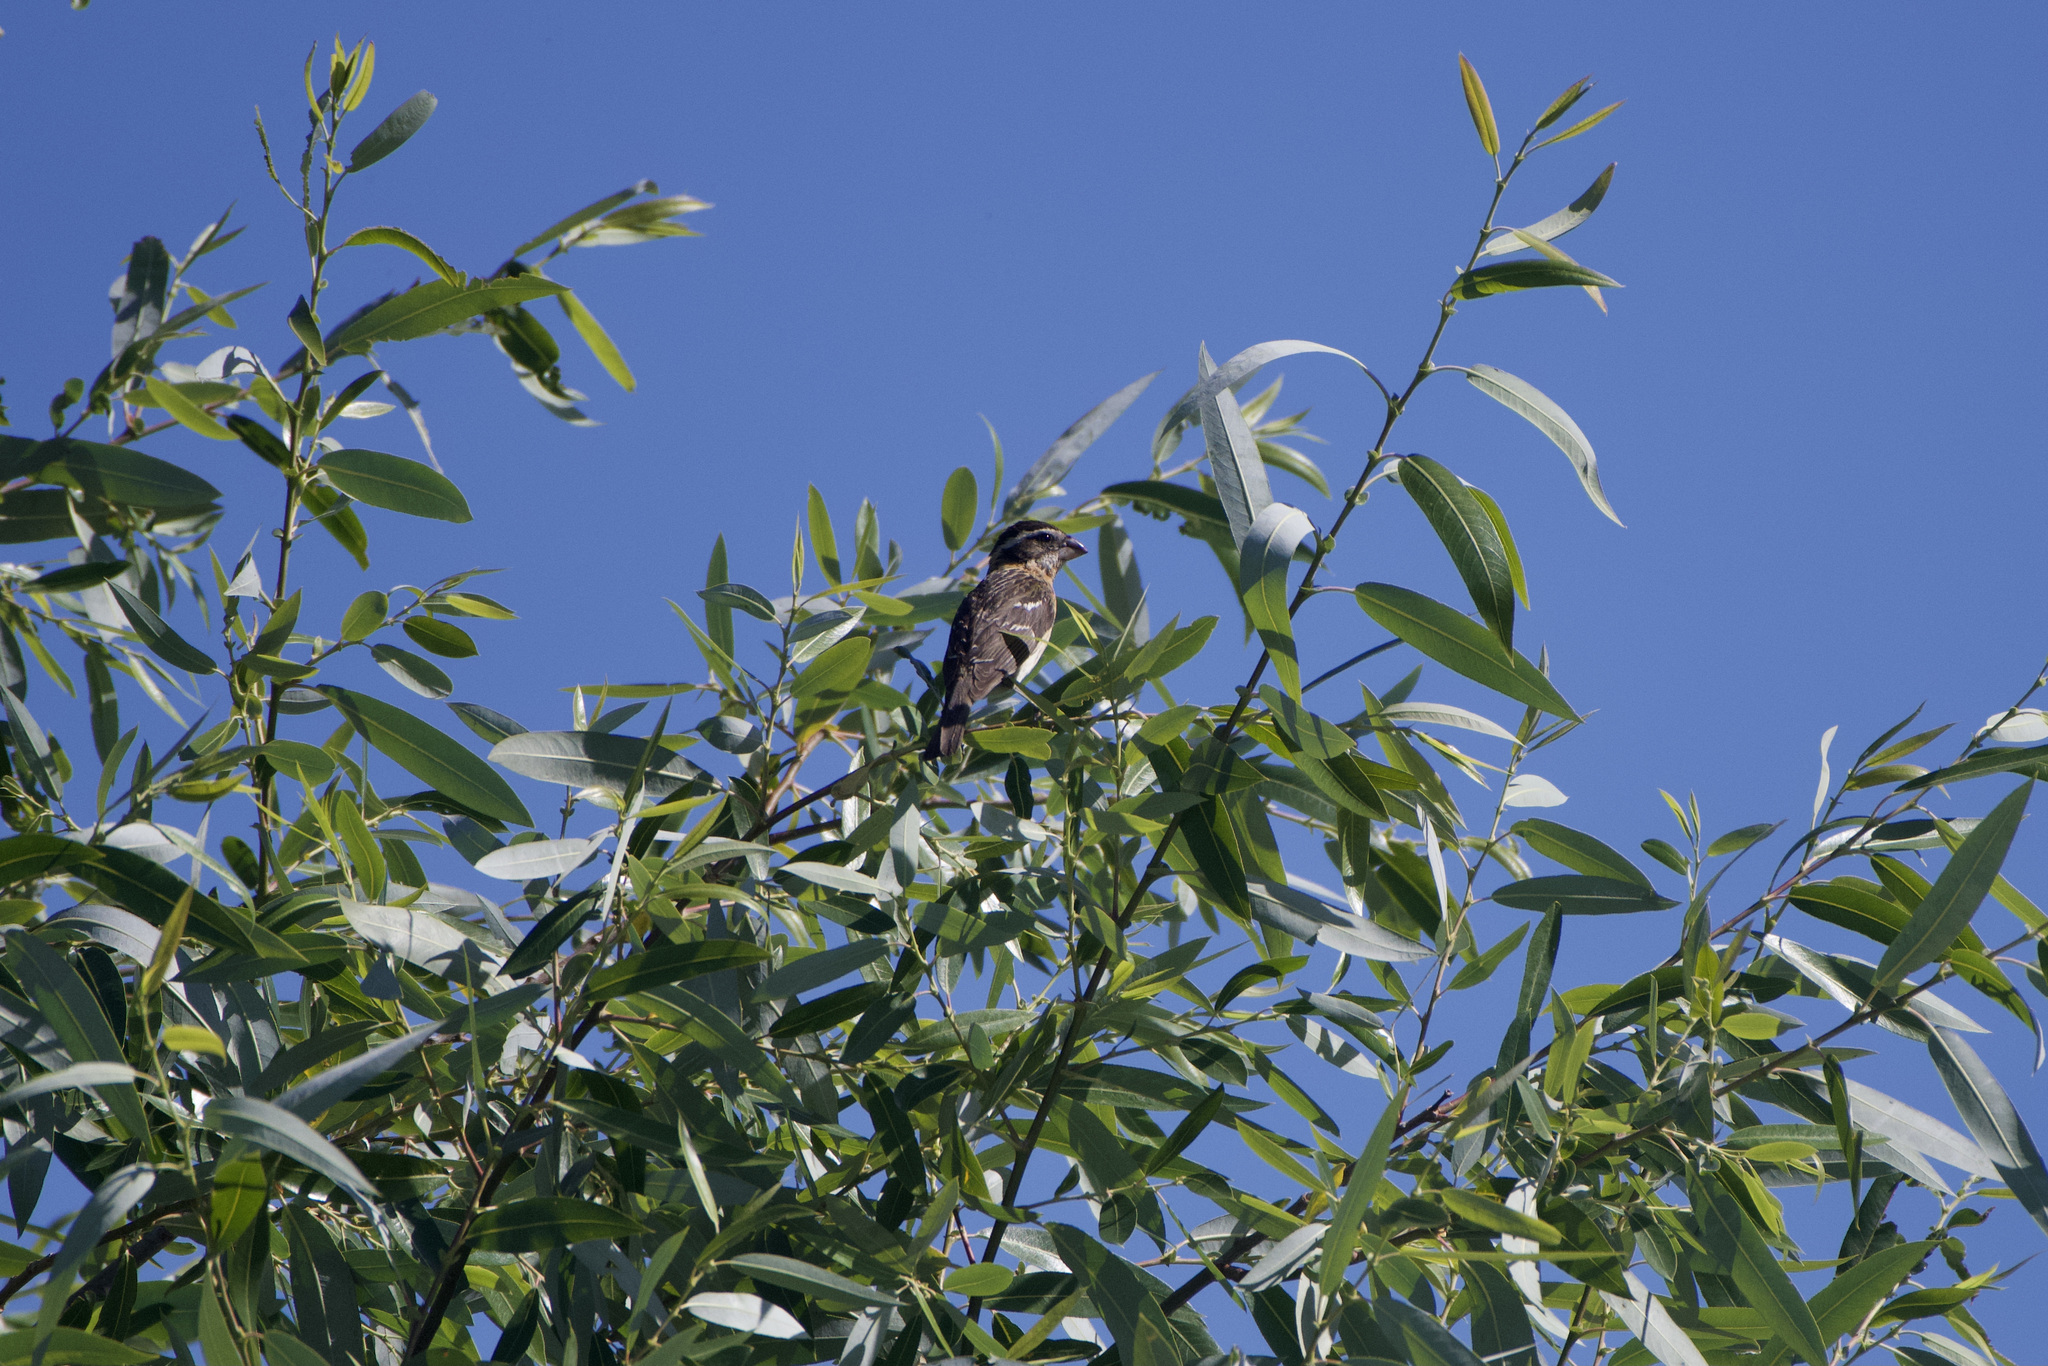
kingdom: Animalia
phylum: Chordata
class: Aves
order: Passeriformes
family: Cardinalidae
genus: Pheucticus
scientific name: Pheucticus melanocephalus
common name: Black-headed grosbeak
